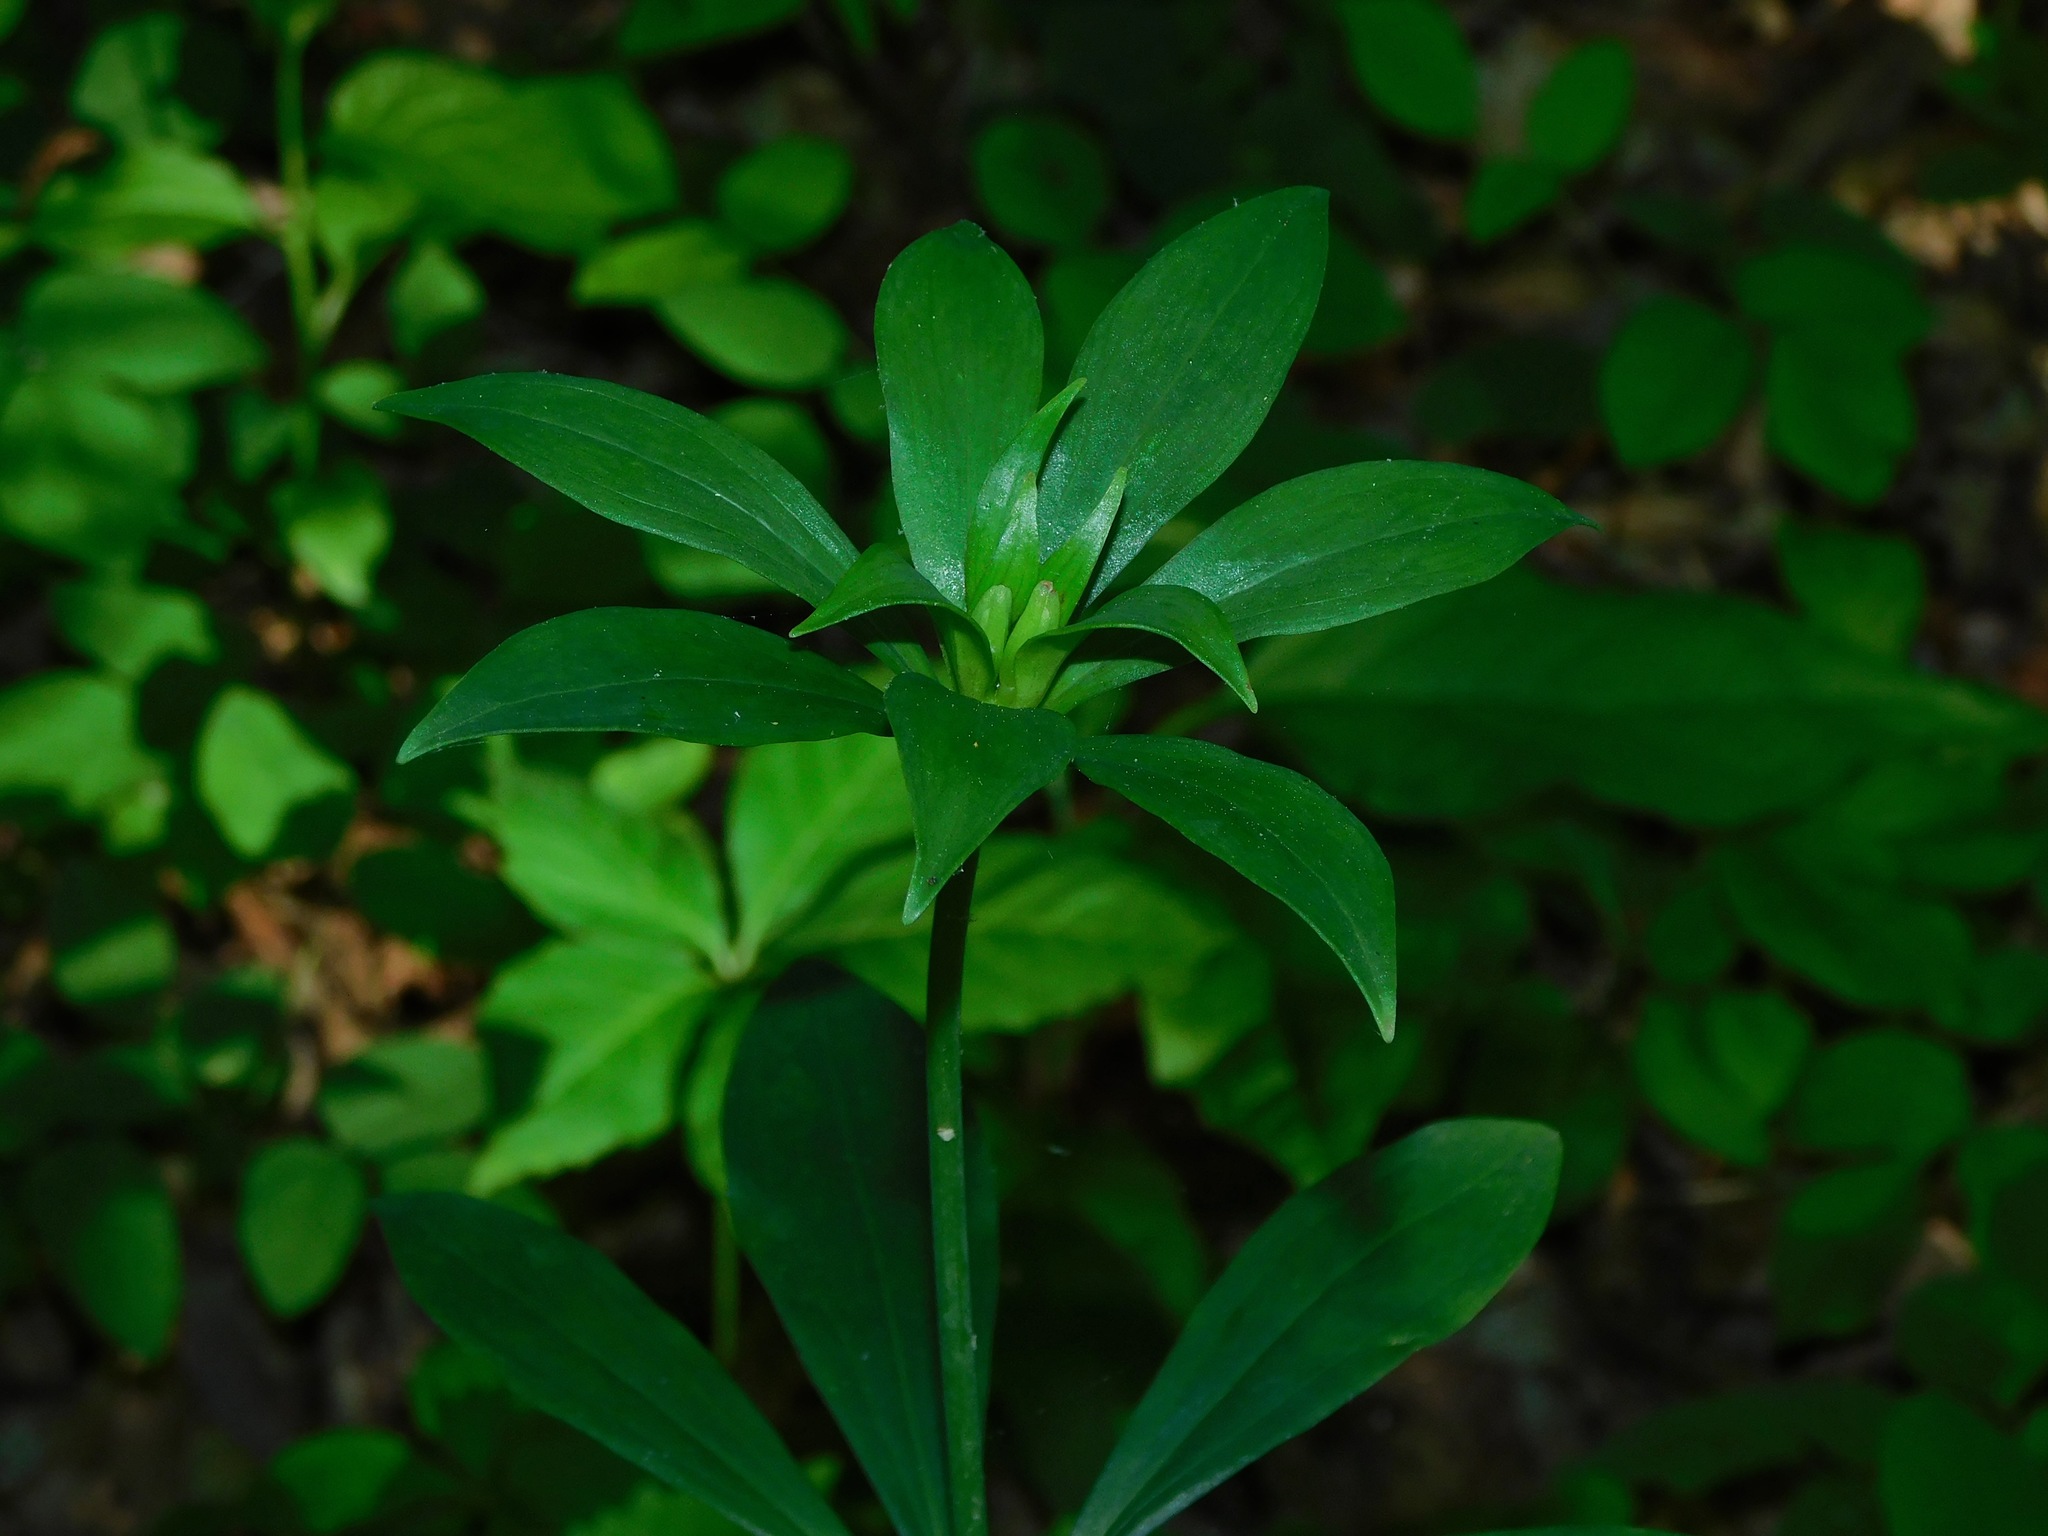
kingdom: Plantae
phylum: Tracheophyta
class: Liliopsida
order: Liliales
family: Liliaceae
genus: Lilium
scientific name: Lilium michauxii
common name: Carolina lily
